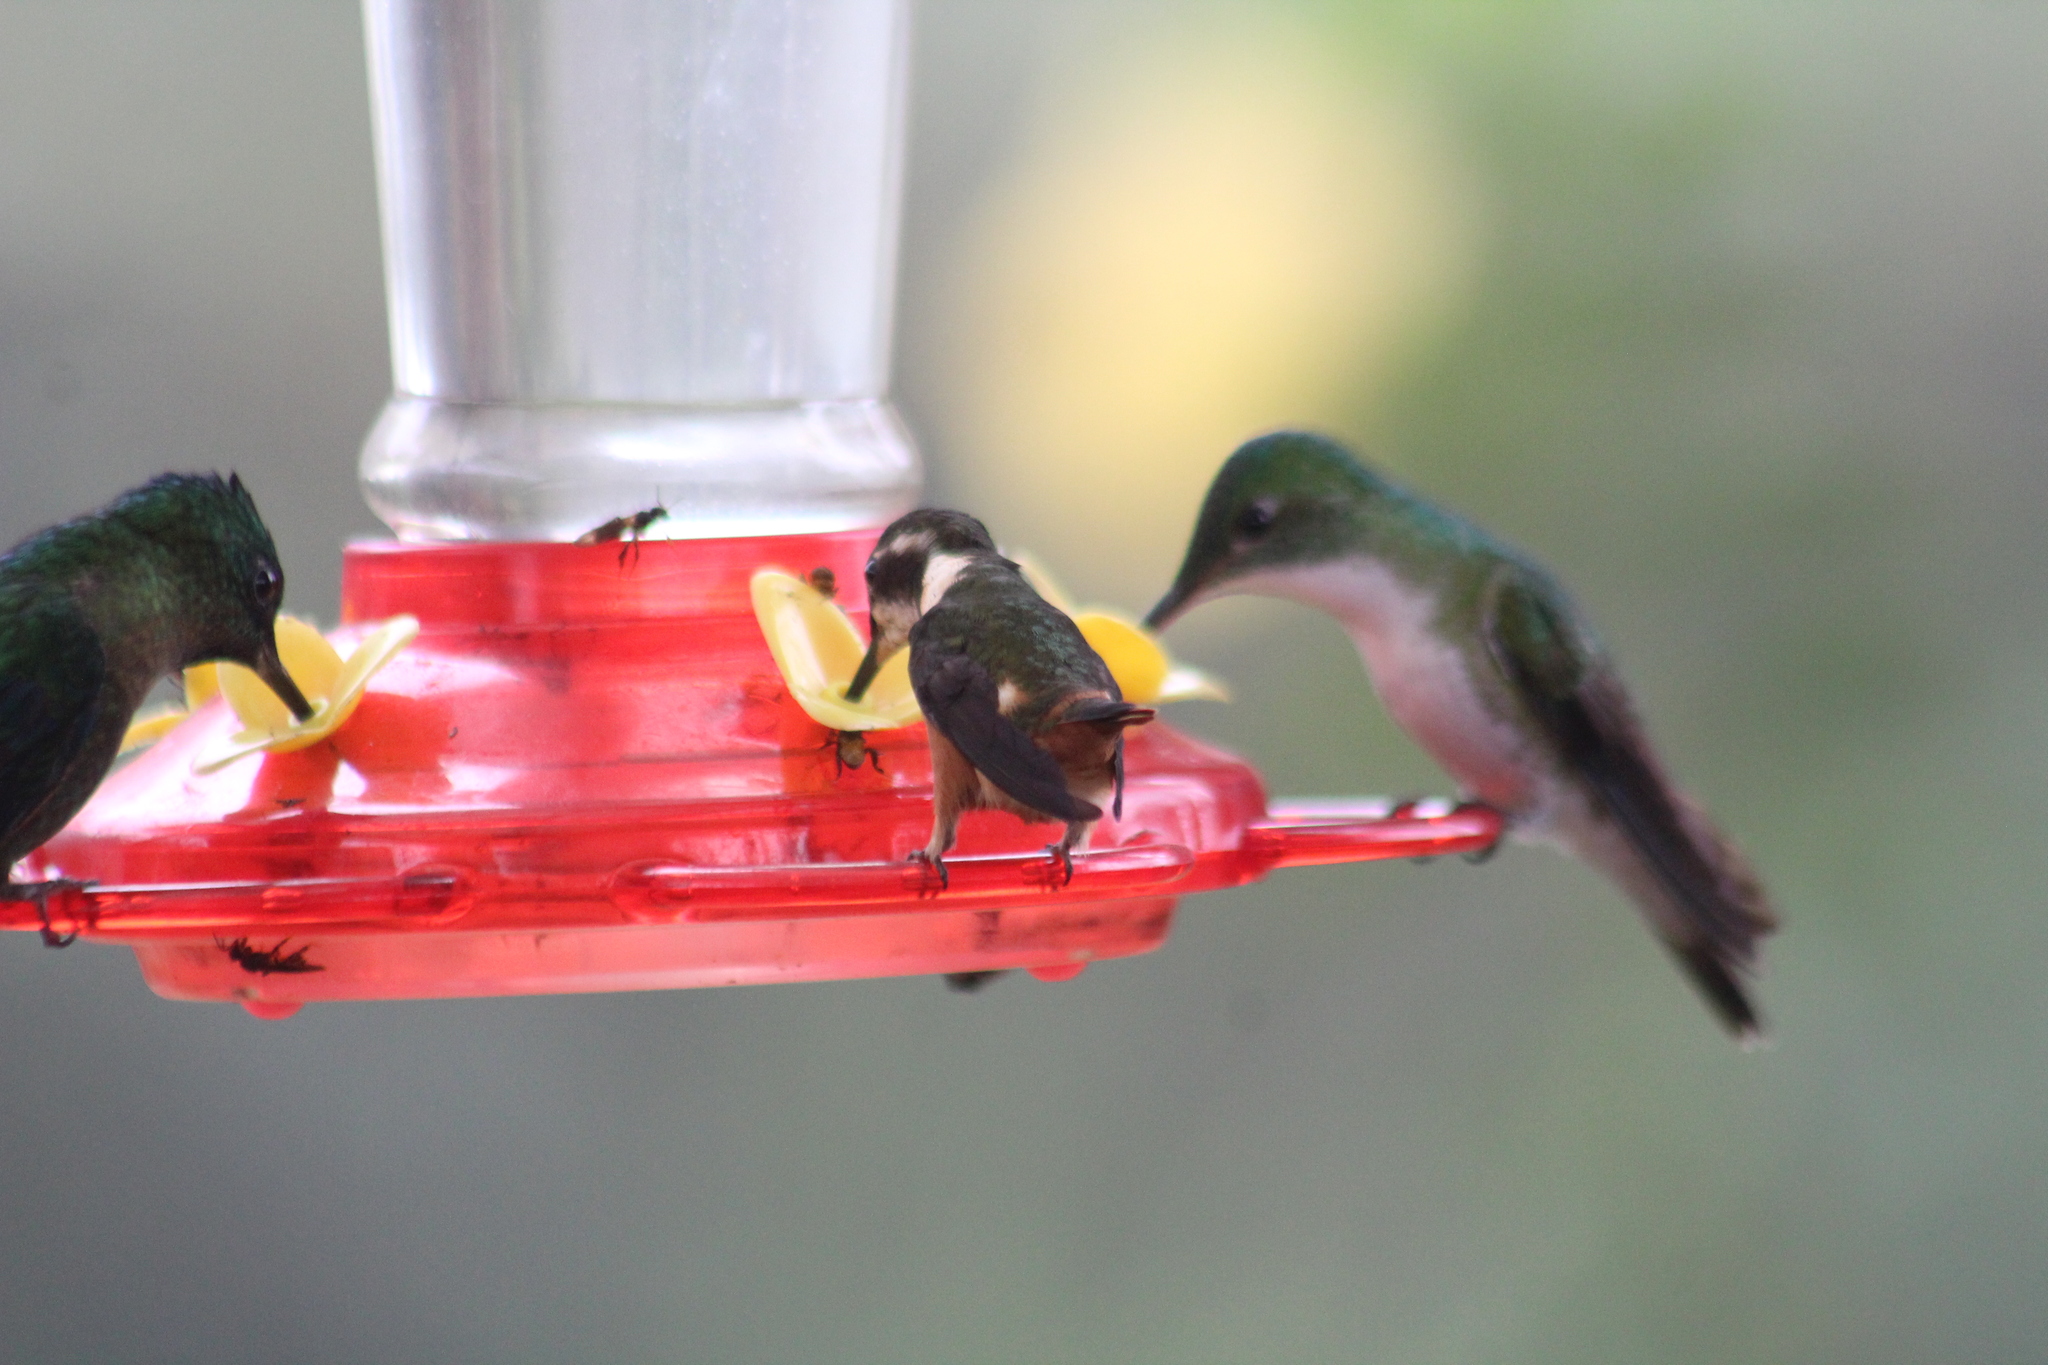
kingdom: Animalia
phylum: Chordata
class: Aves
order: Apodiformes
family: Trochilidae
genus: Calliphlox
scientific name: Calliphlox mitchellii
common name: Purple-throated woodstar
